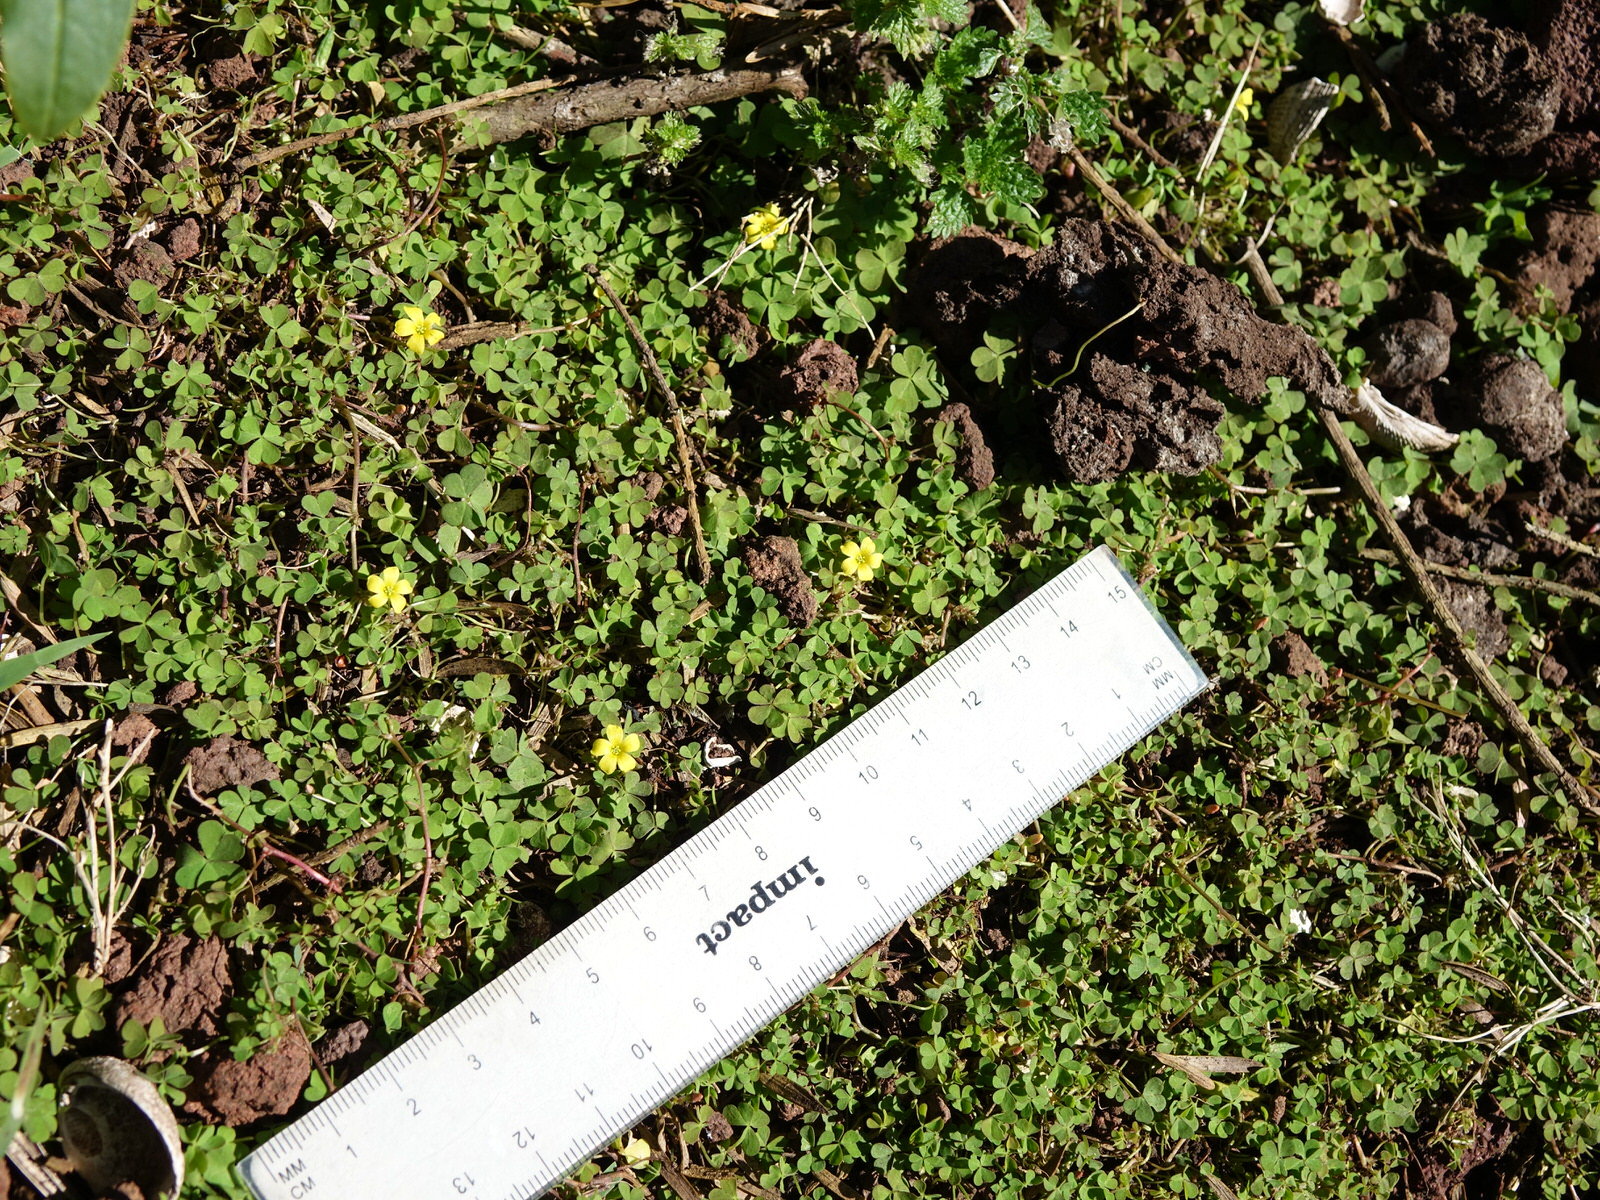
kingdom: Plantae
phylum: Tracheophyta
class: Magnoliopsida
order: Oxalidales
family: Oxalidaceae
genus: Oxalis
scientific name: Oxalis exilis
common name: Least yellow-sorrel
